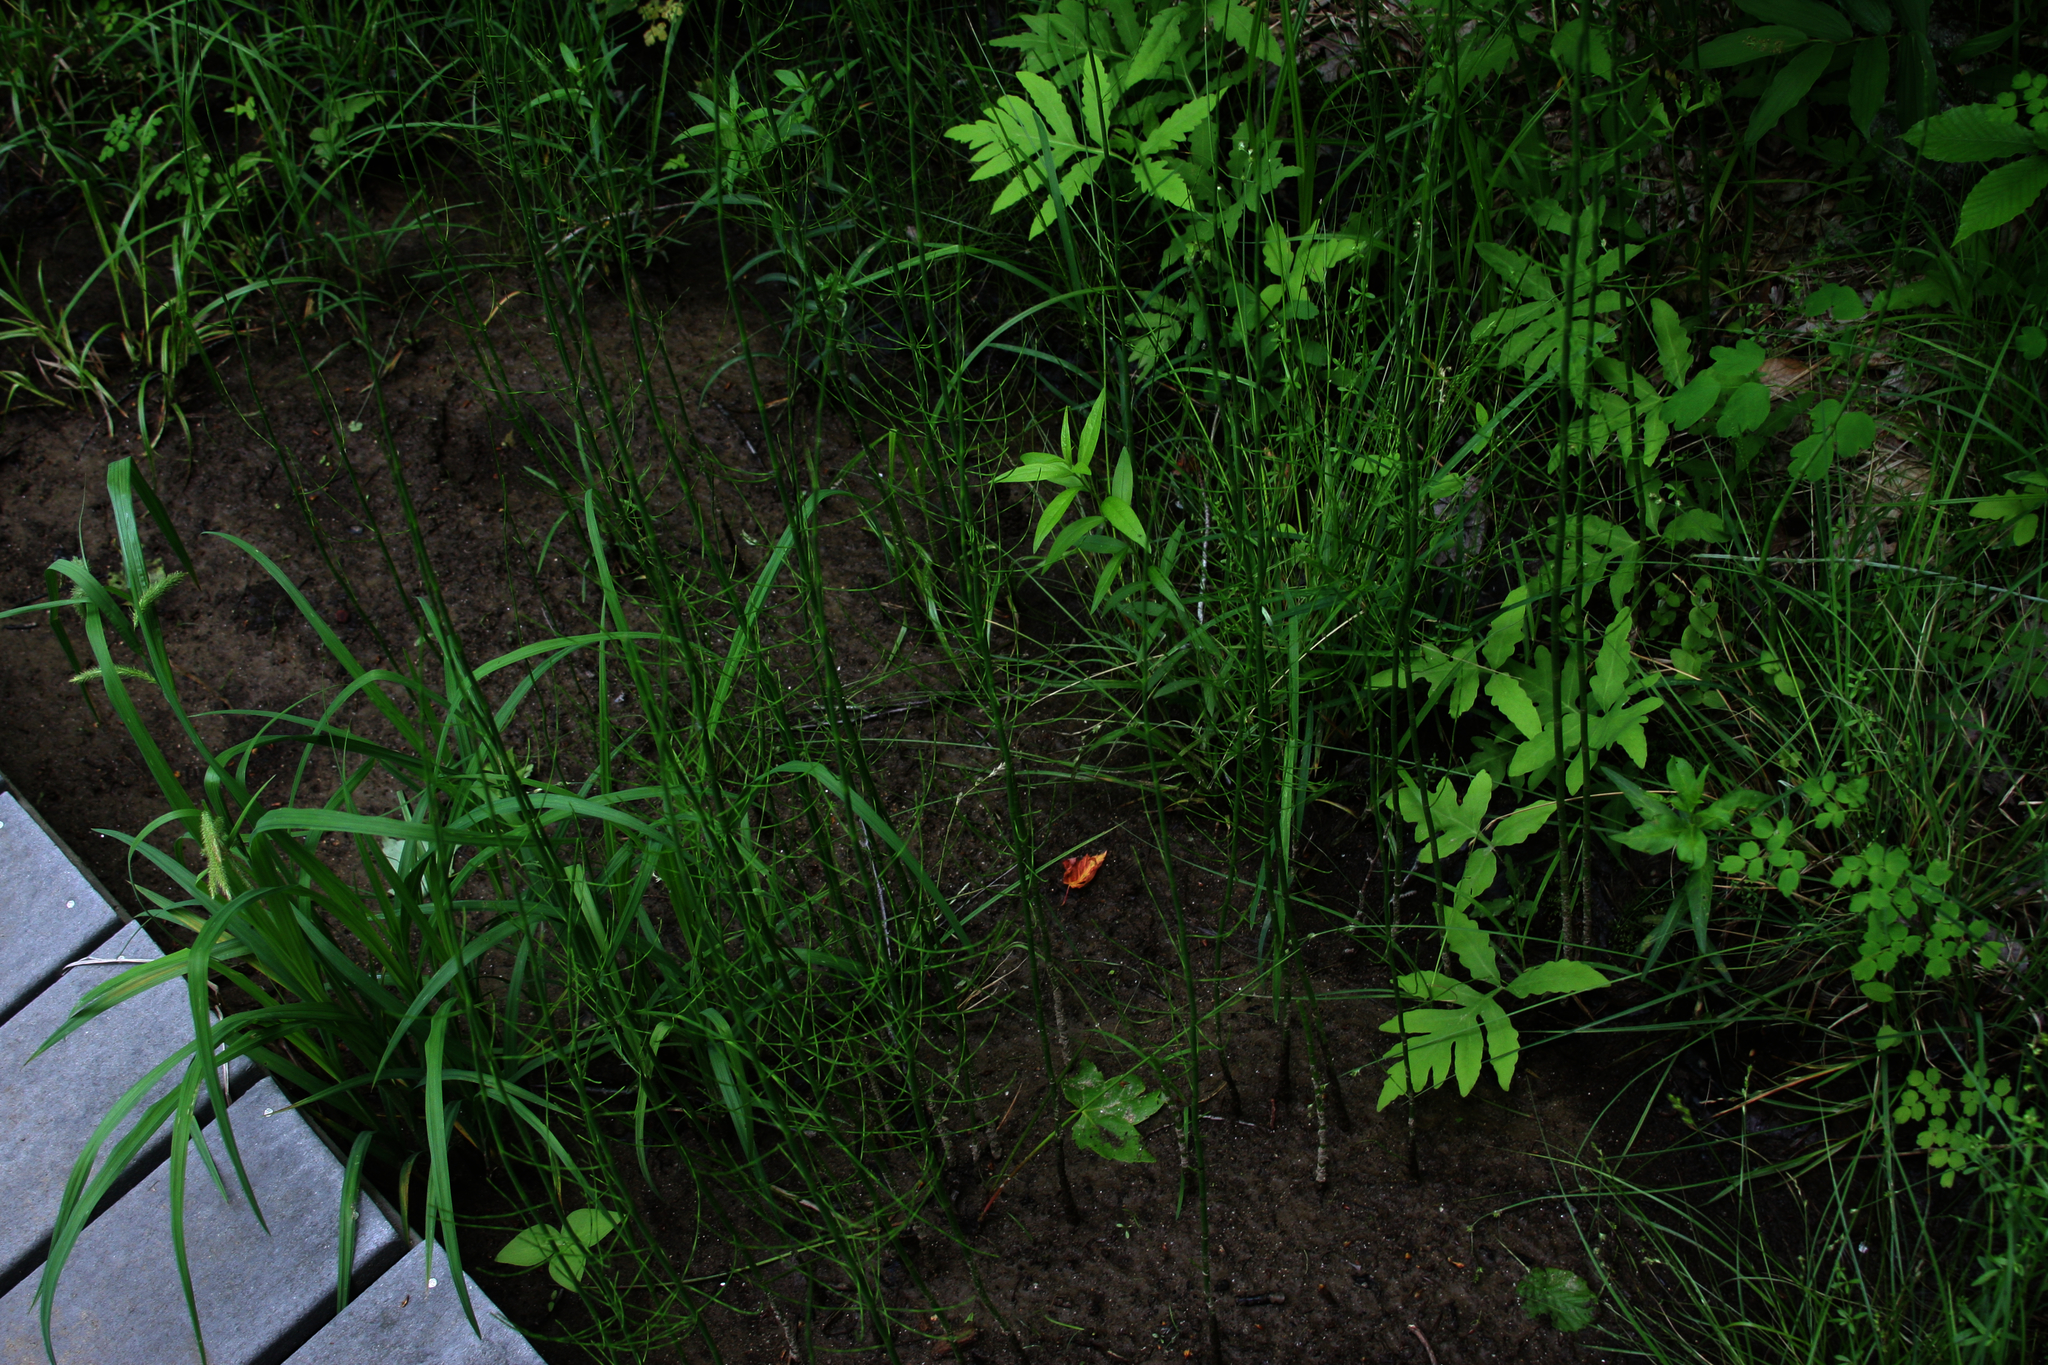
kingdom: Plantae
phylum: Tracheophyta
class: Polypodiopsida
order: Polypodiales
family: Onocleaceae
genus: Onoclea
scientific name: Onoclea sensibilis
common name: Sensitive fern
